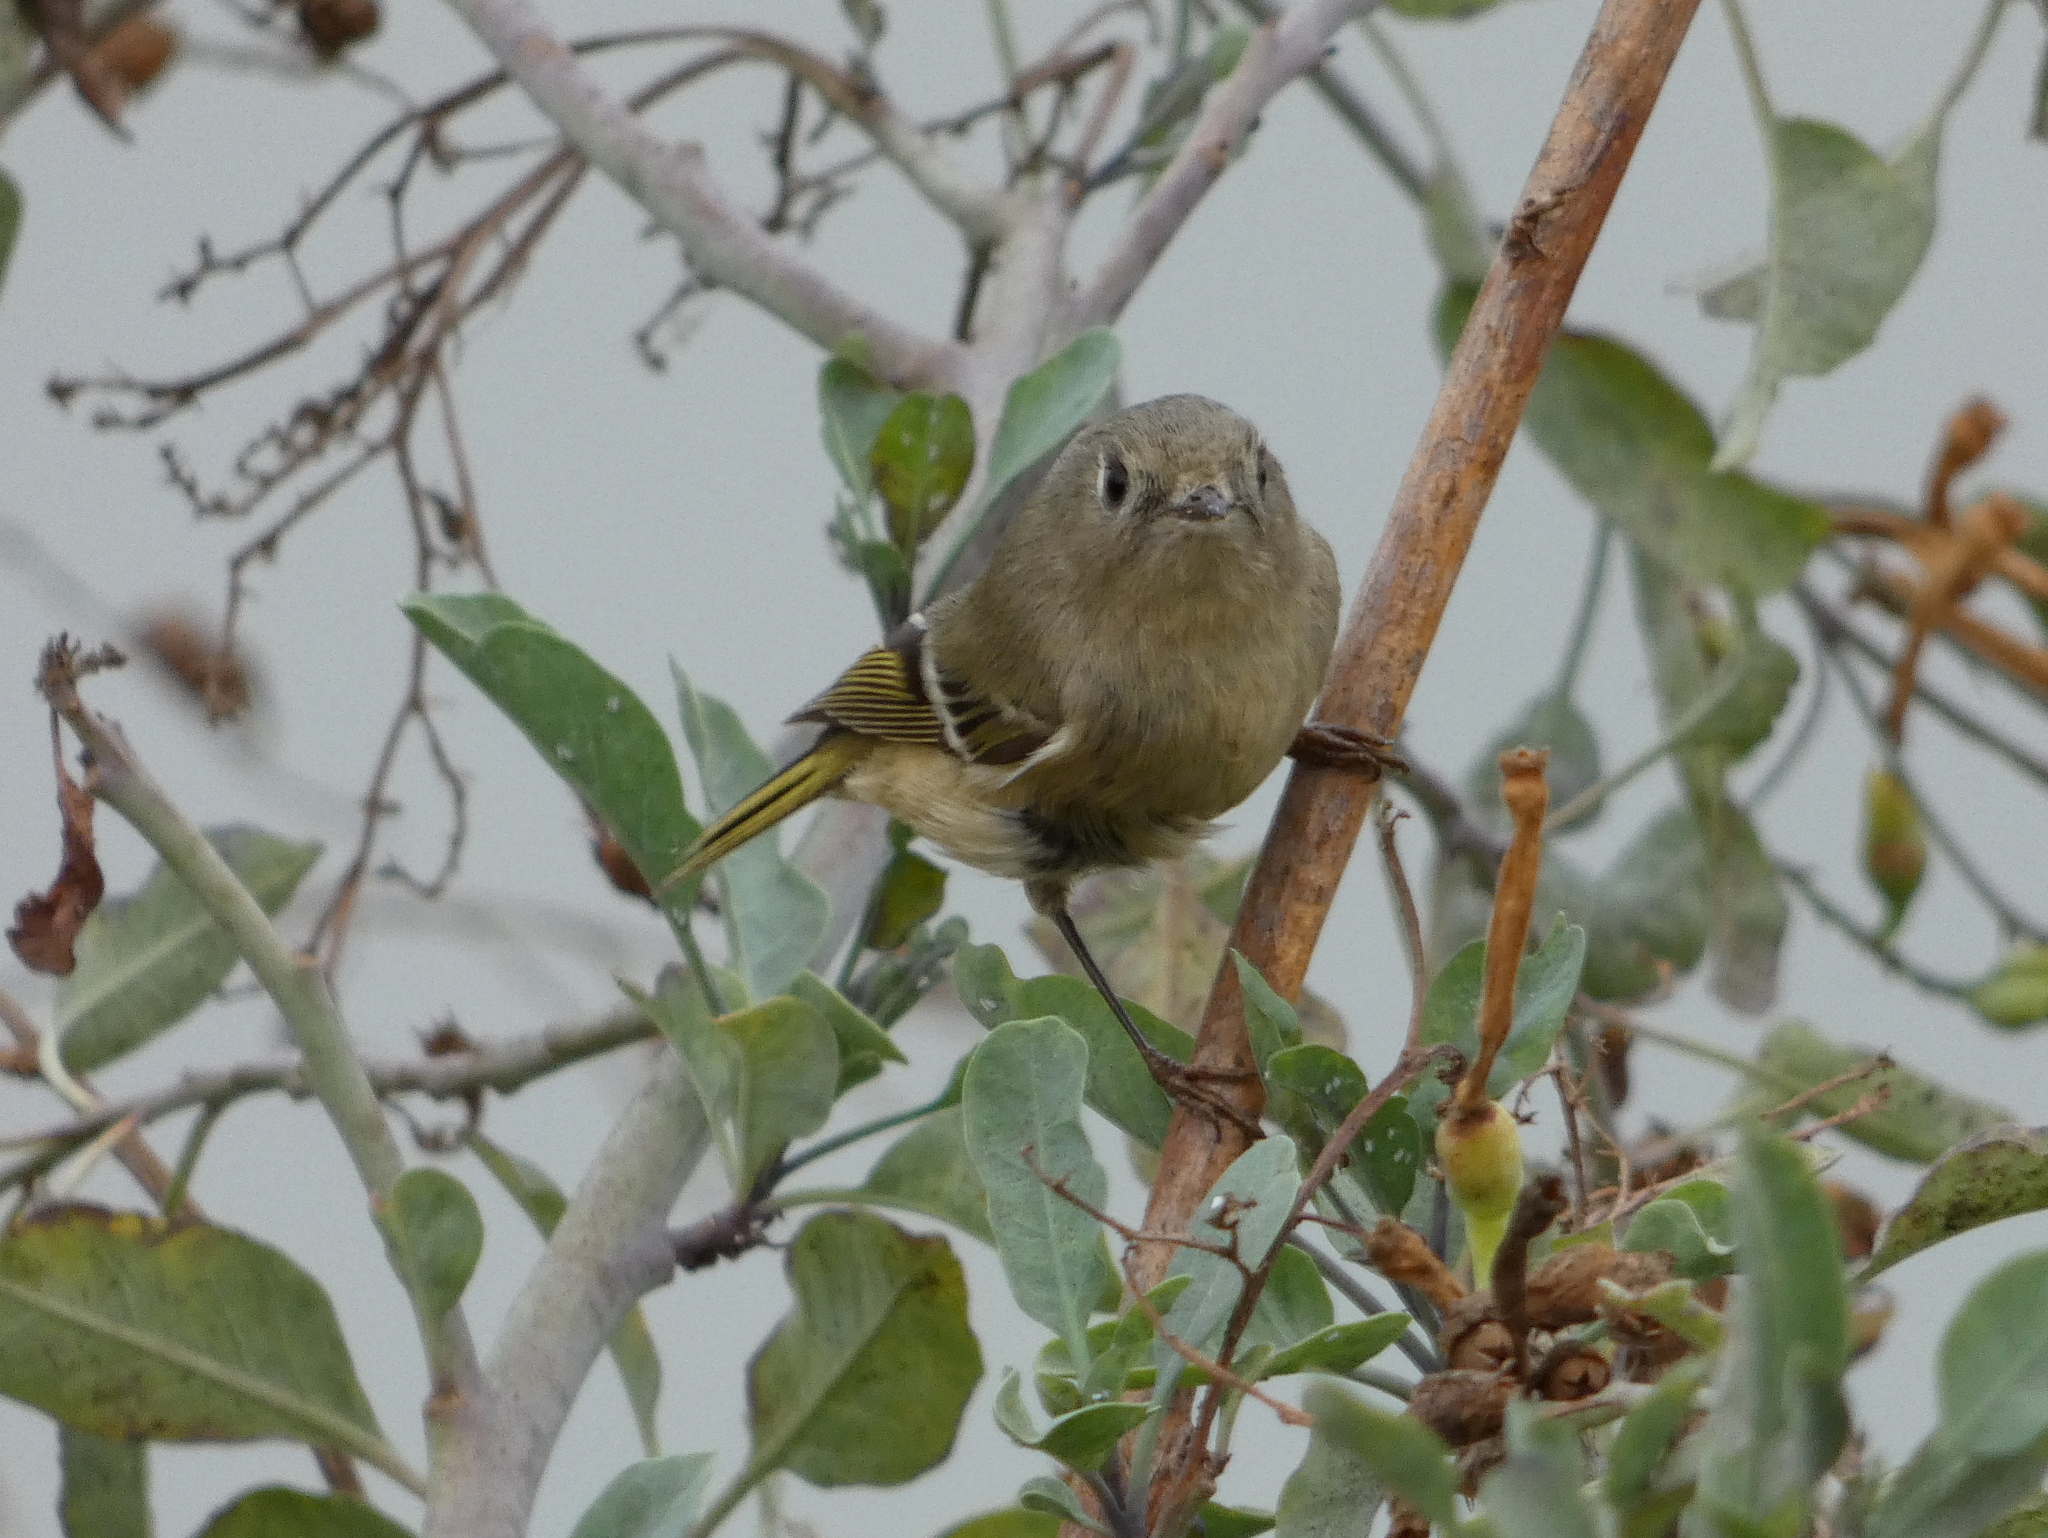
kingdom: Animalia
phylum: Chordata
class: Aves
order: Passeriformes
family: Regulidae
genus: Regulus
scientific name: Regulus calendula
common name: Ruby-crowned kinglet
